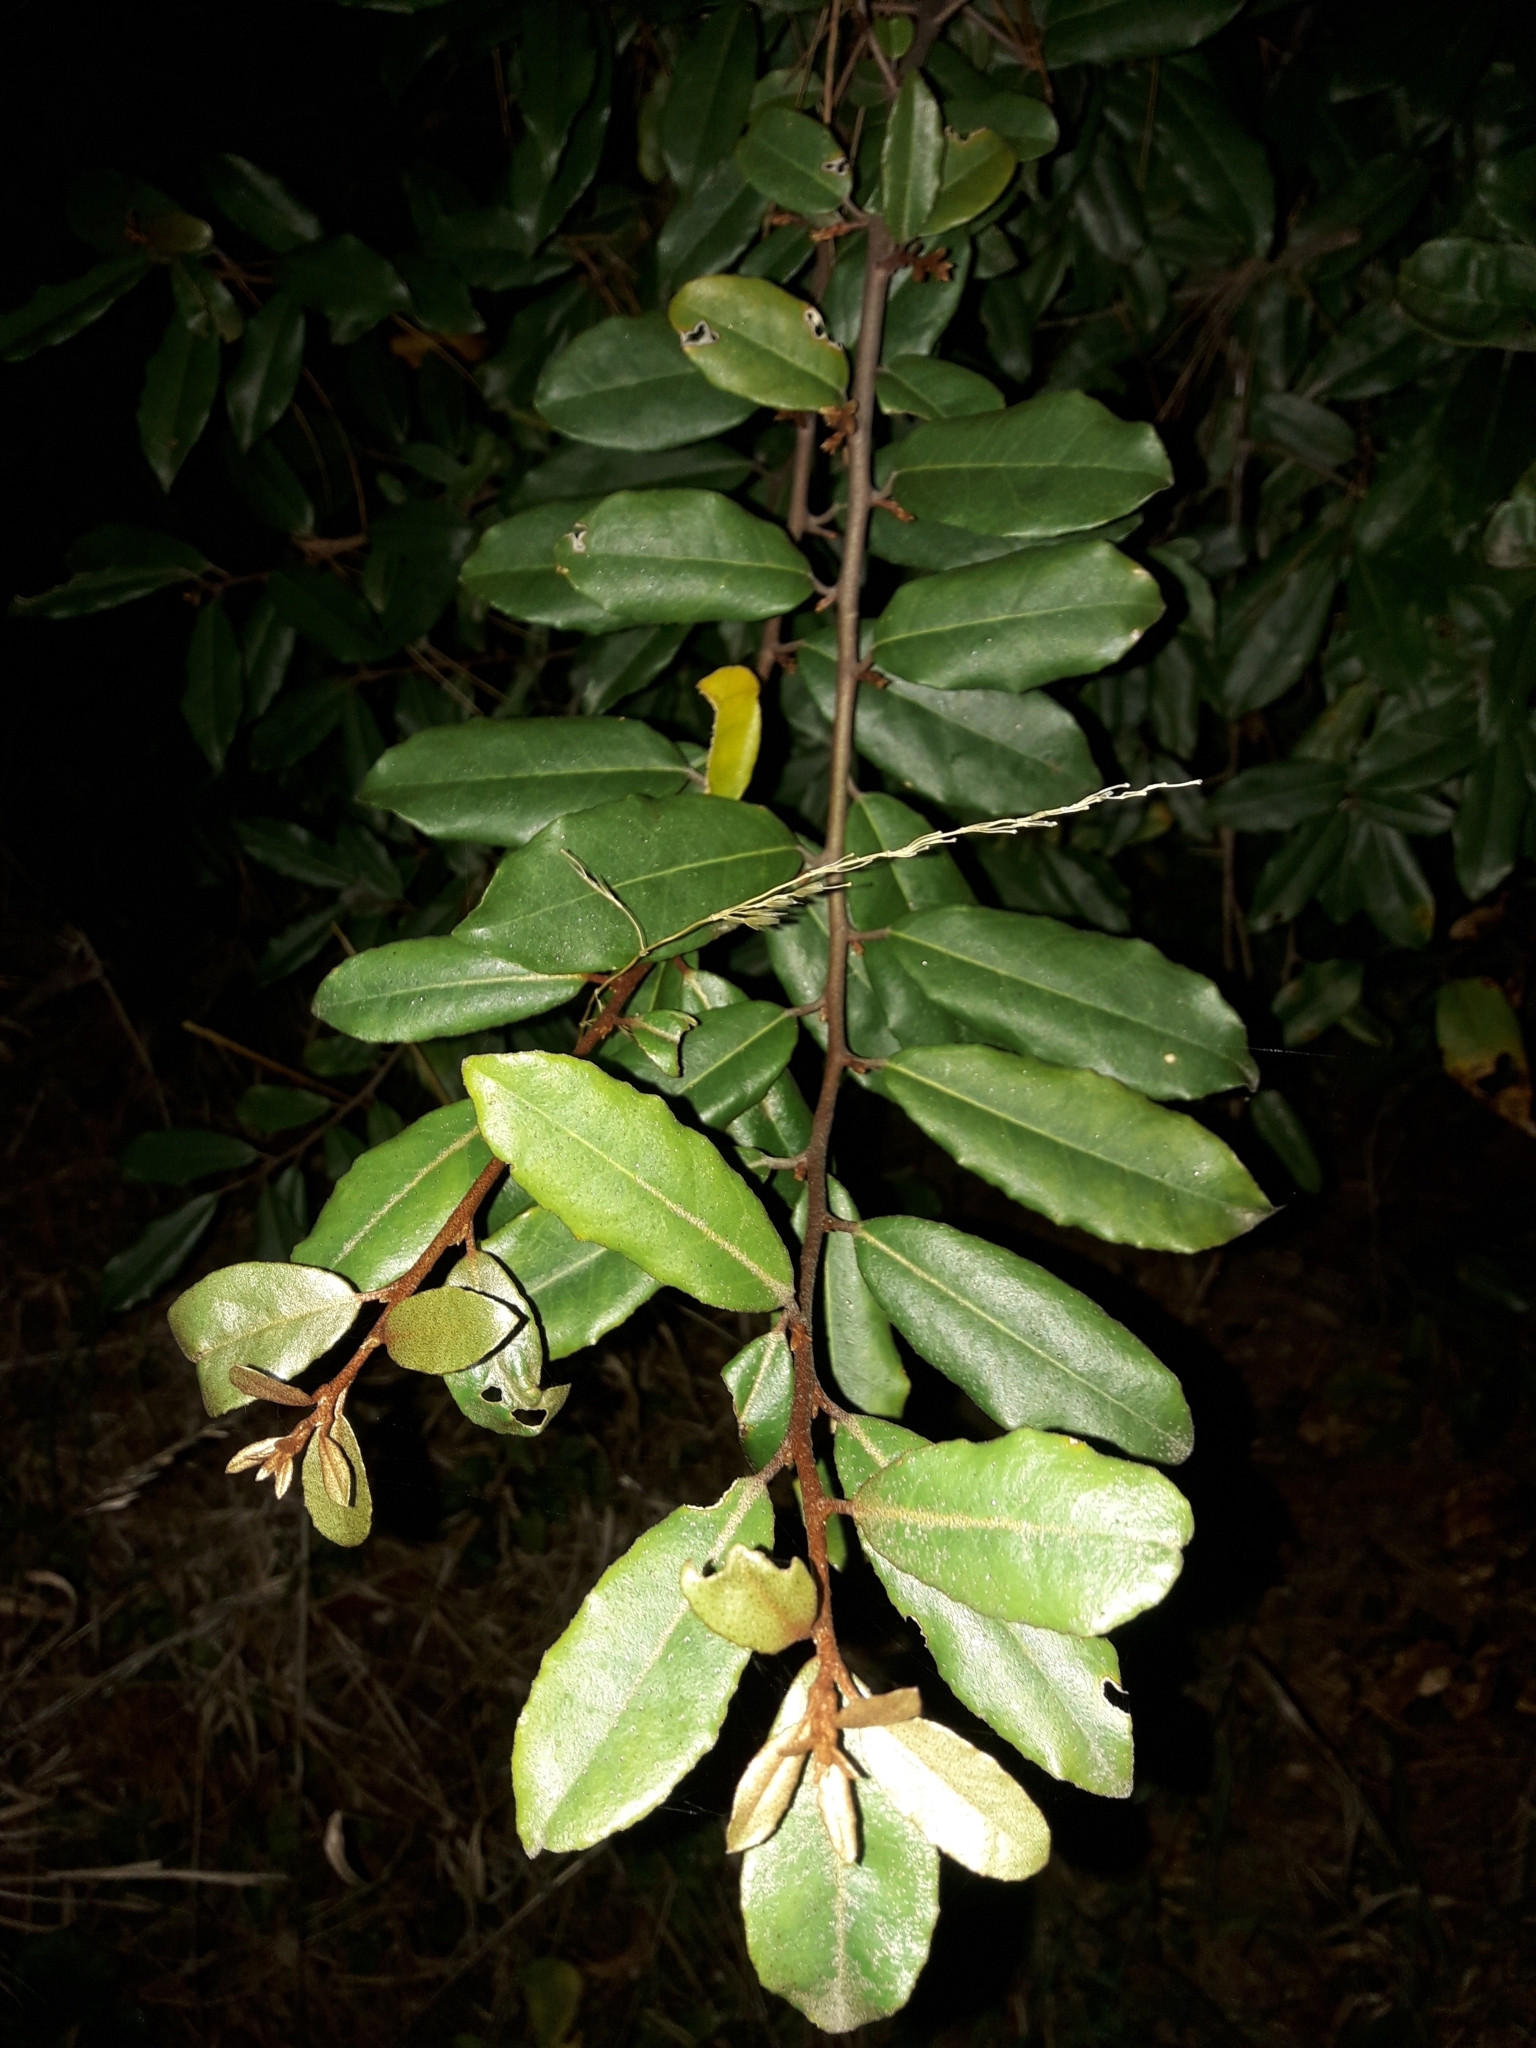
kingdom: Plantae
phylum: Tracheophyta
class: Magnoliopsida
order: Rosales
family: Elaeagnaceae
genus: Elaeagnus
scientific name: Elaeagnus reflexa
